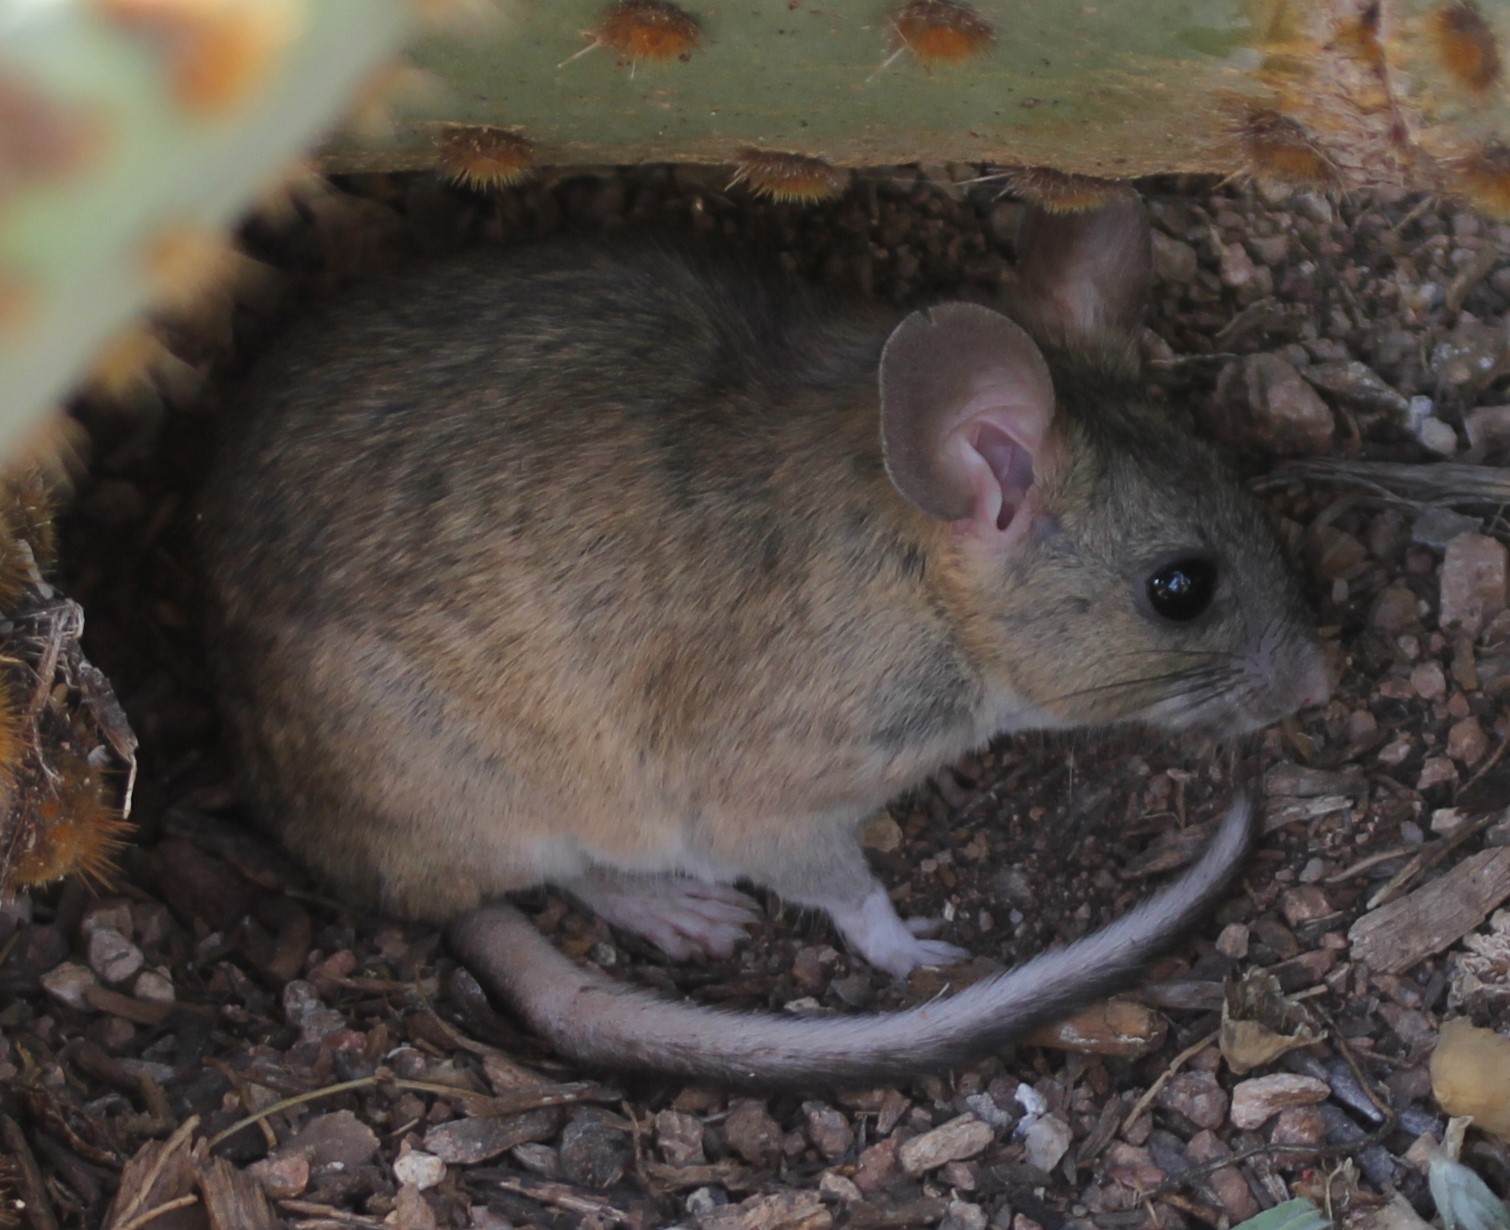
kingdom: Animalia
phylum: Chordata
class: Mammalia
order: Rodentia
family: Cricetidae
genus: Neotoma
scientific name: Neotoma albigula
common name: White-throated woodrat
